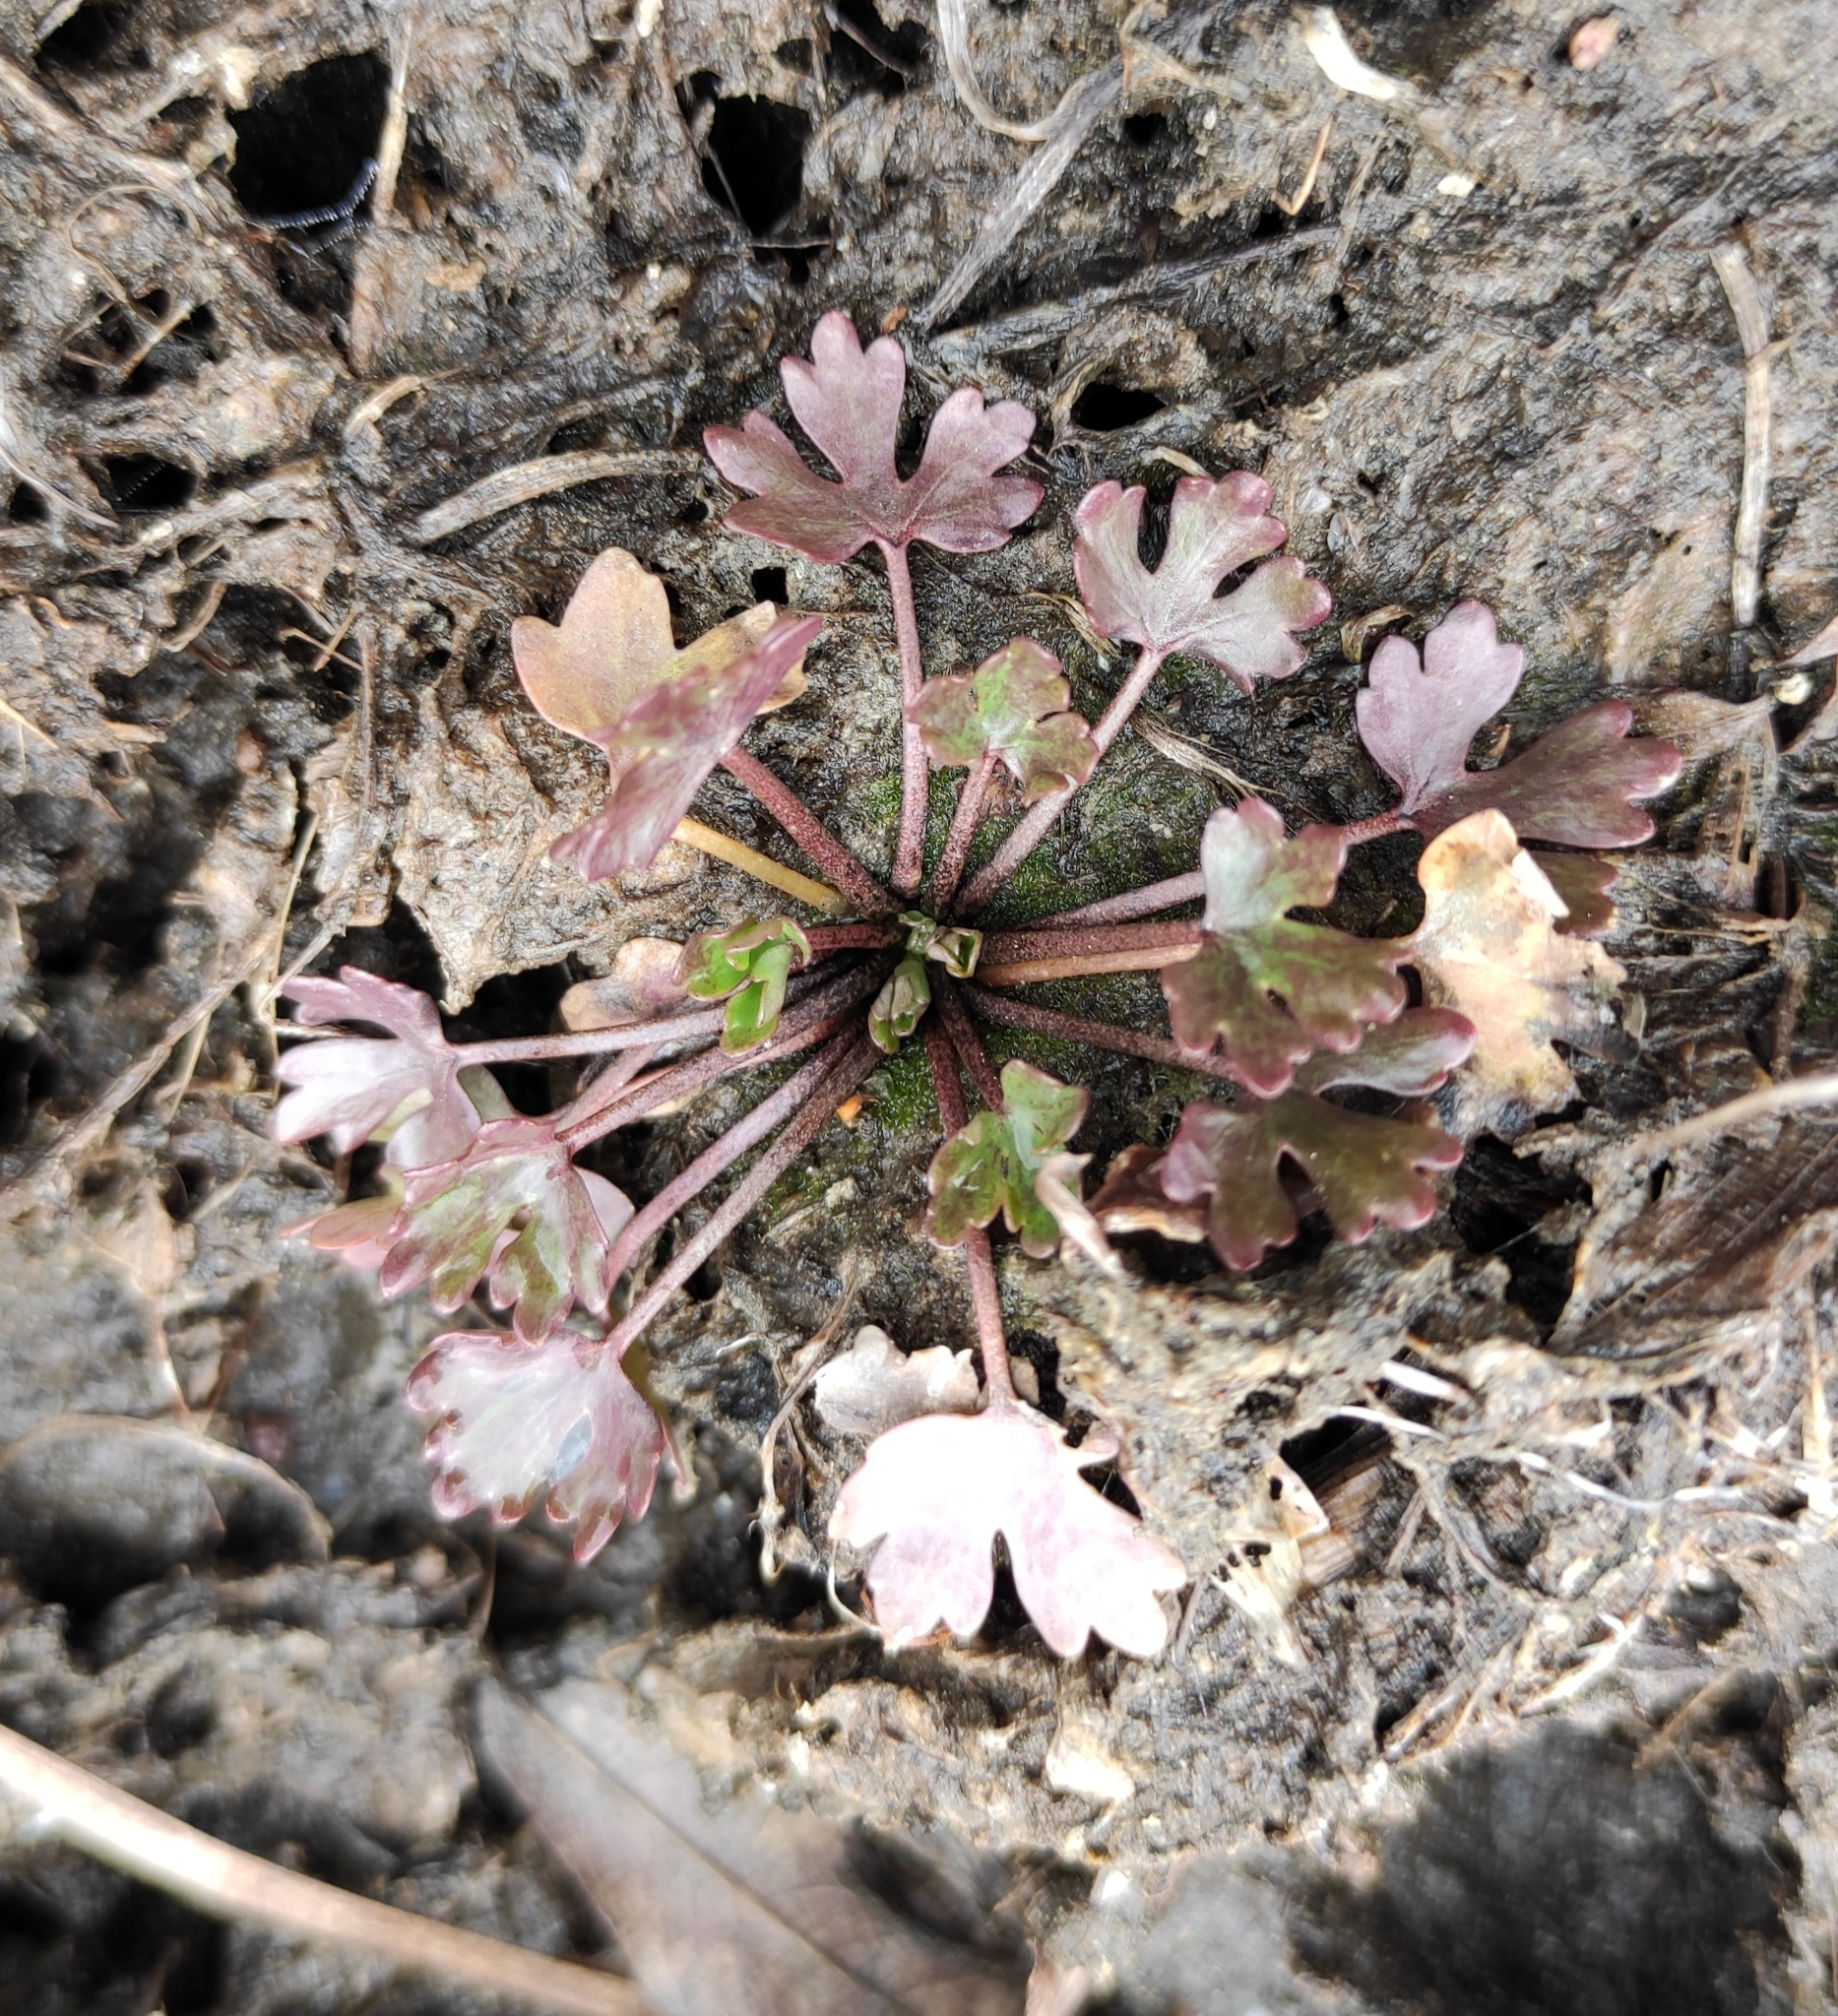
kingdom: Plantae
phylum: Tracheophyta
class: Magnoliopsida
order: Ranunculales
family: Ranunculaceae
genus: Ranunculus
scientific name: Ranunculus sceleratus
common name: Celery-leaved buttercup
